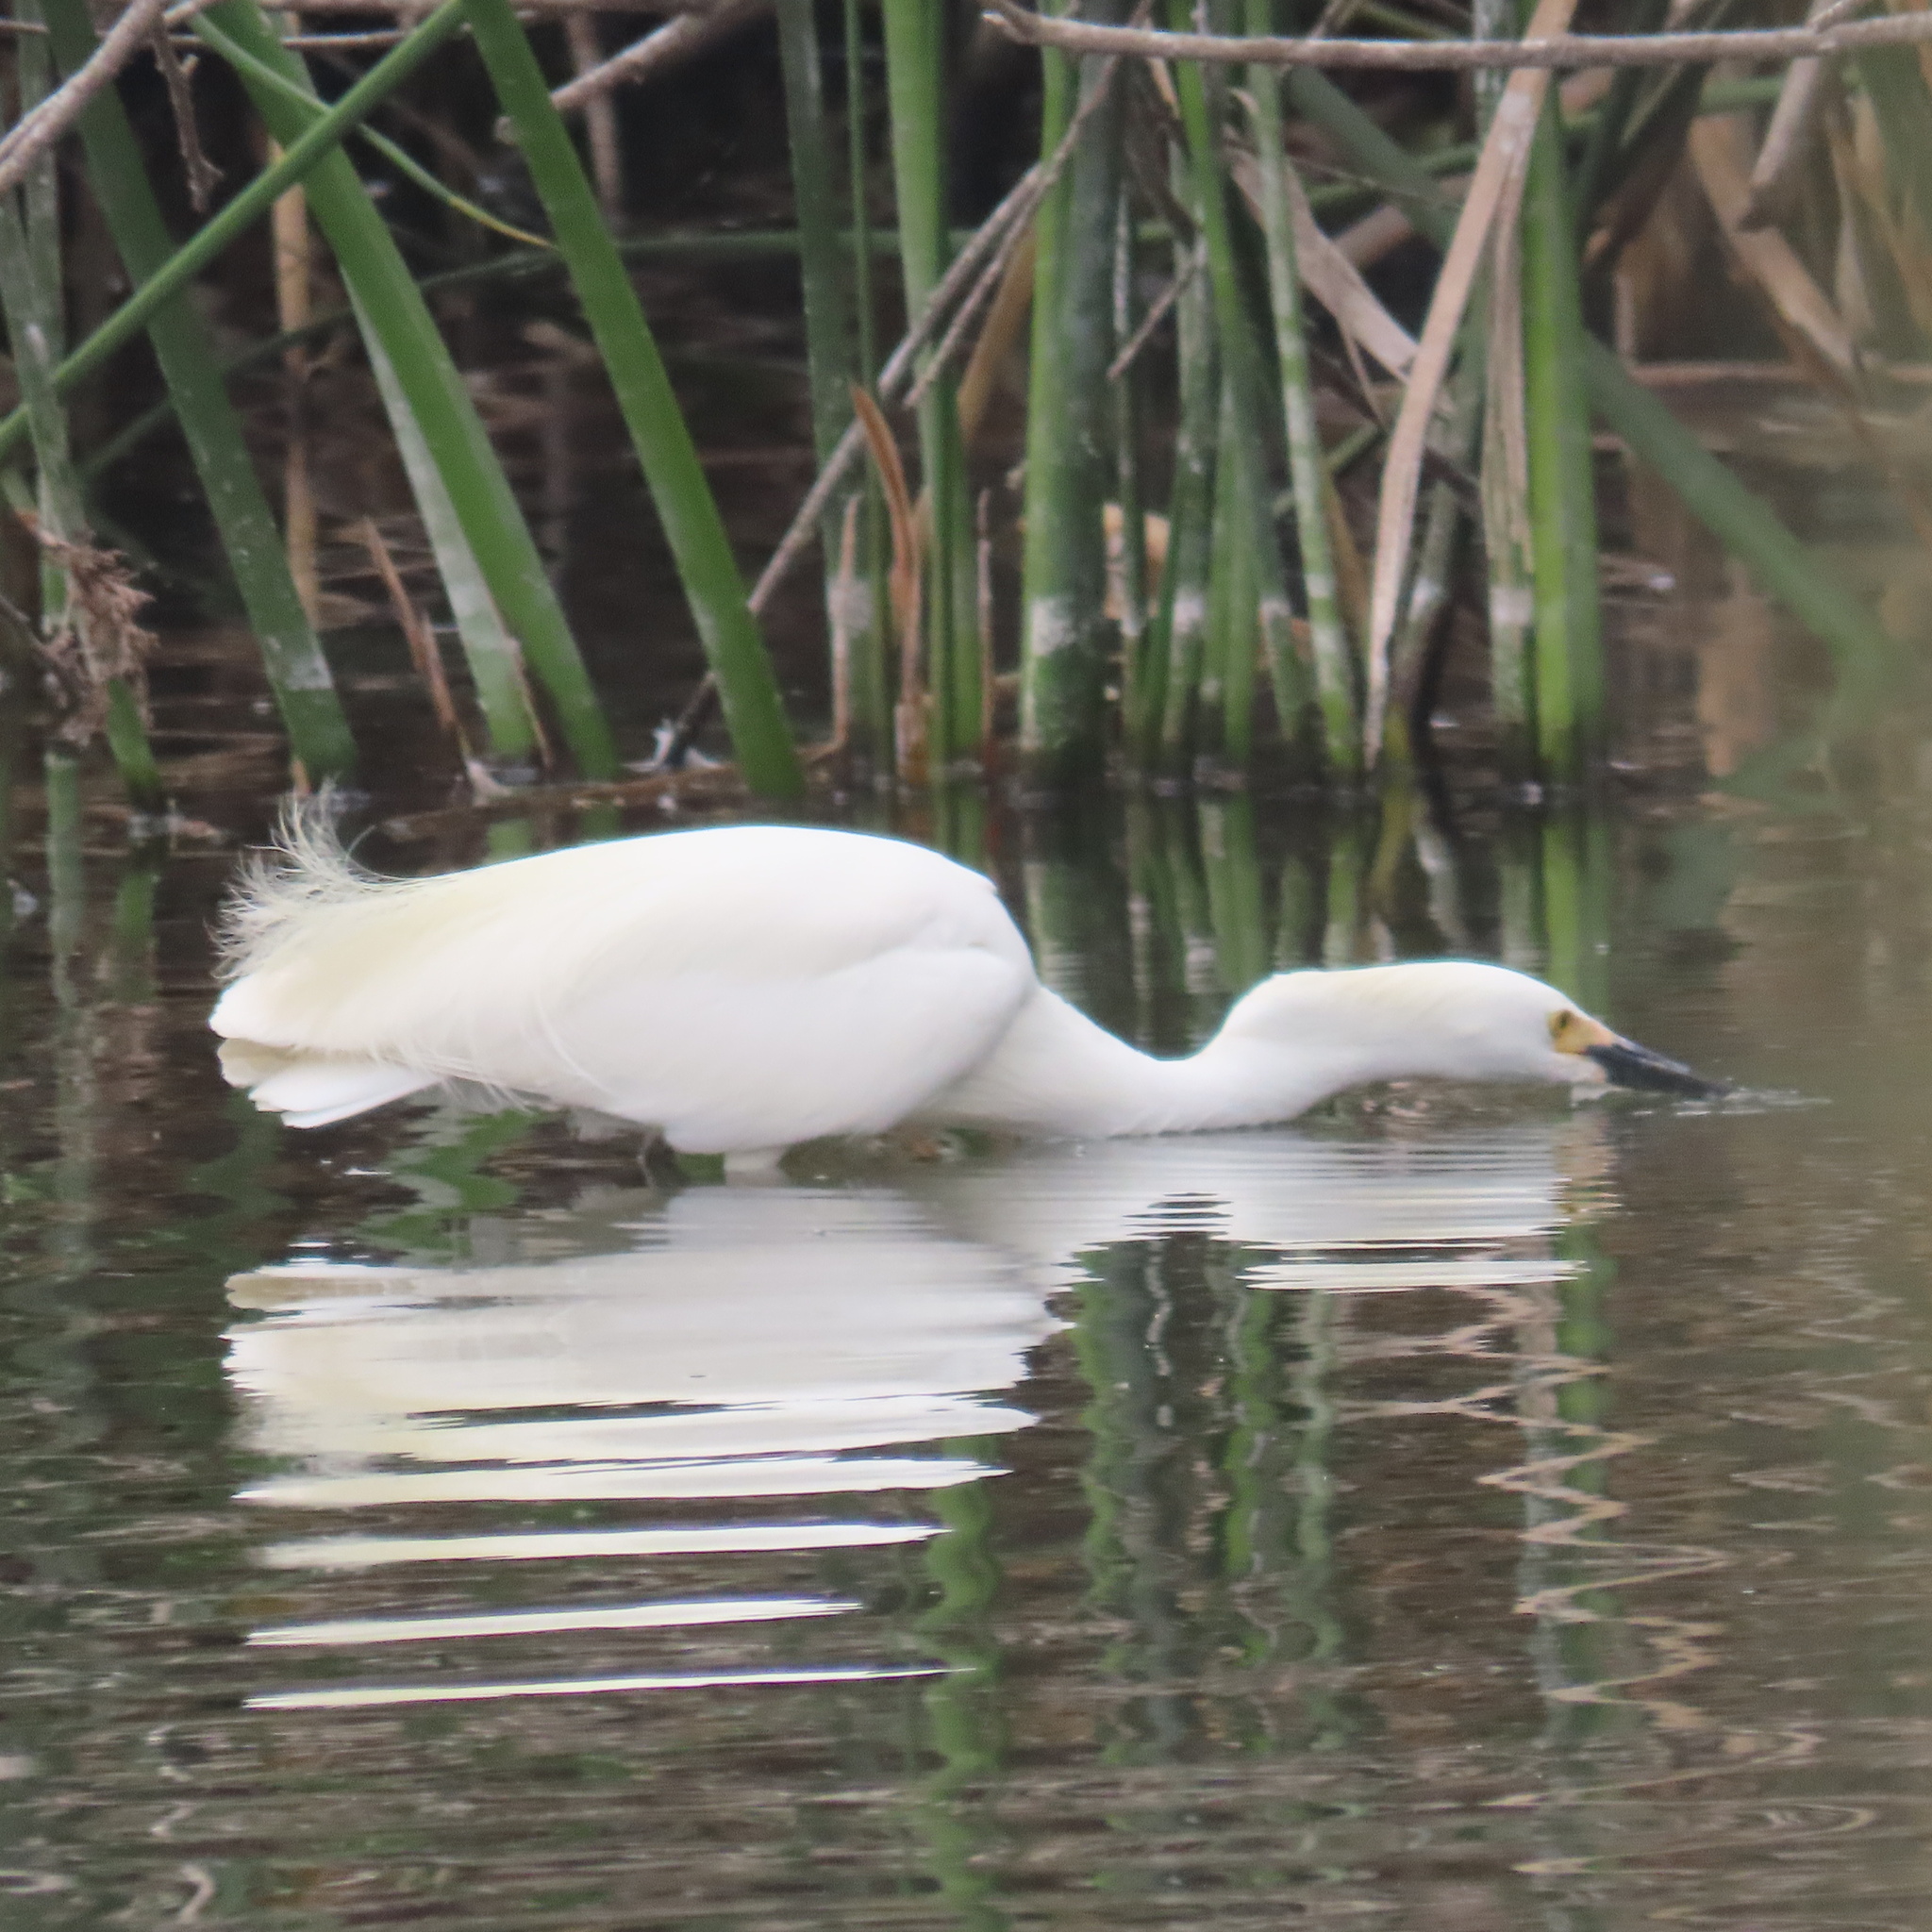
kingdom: Animalia
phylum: Chordata
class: Aves
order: Pelecaniformes
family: Ardeidae
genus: Egretta
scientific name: Egretta thula
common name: Snowy egret
